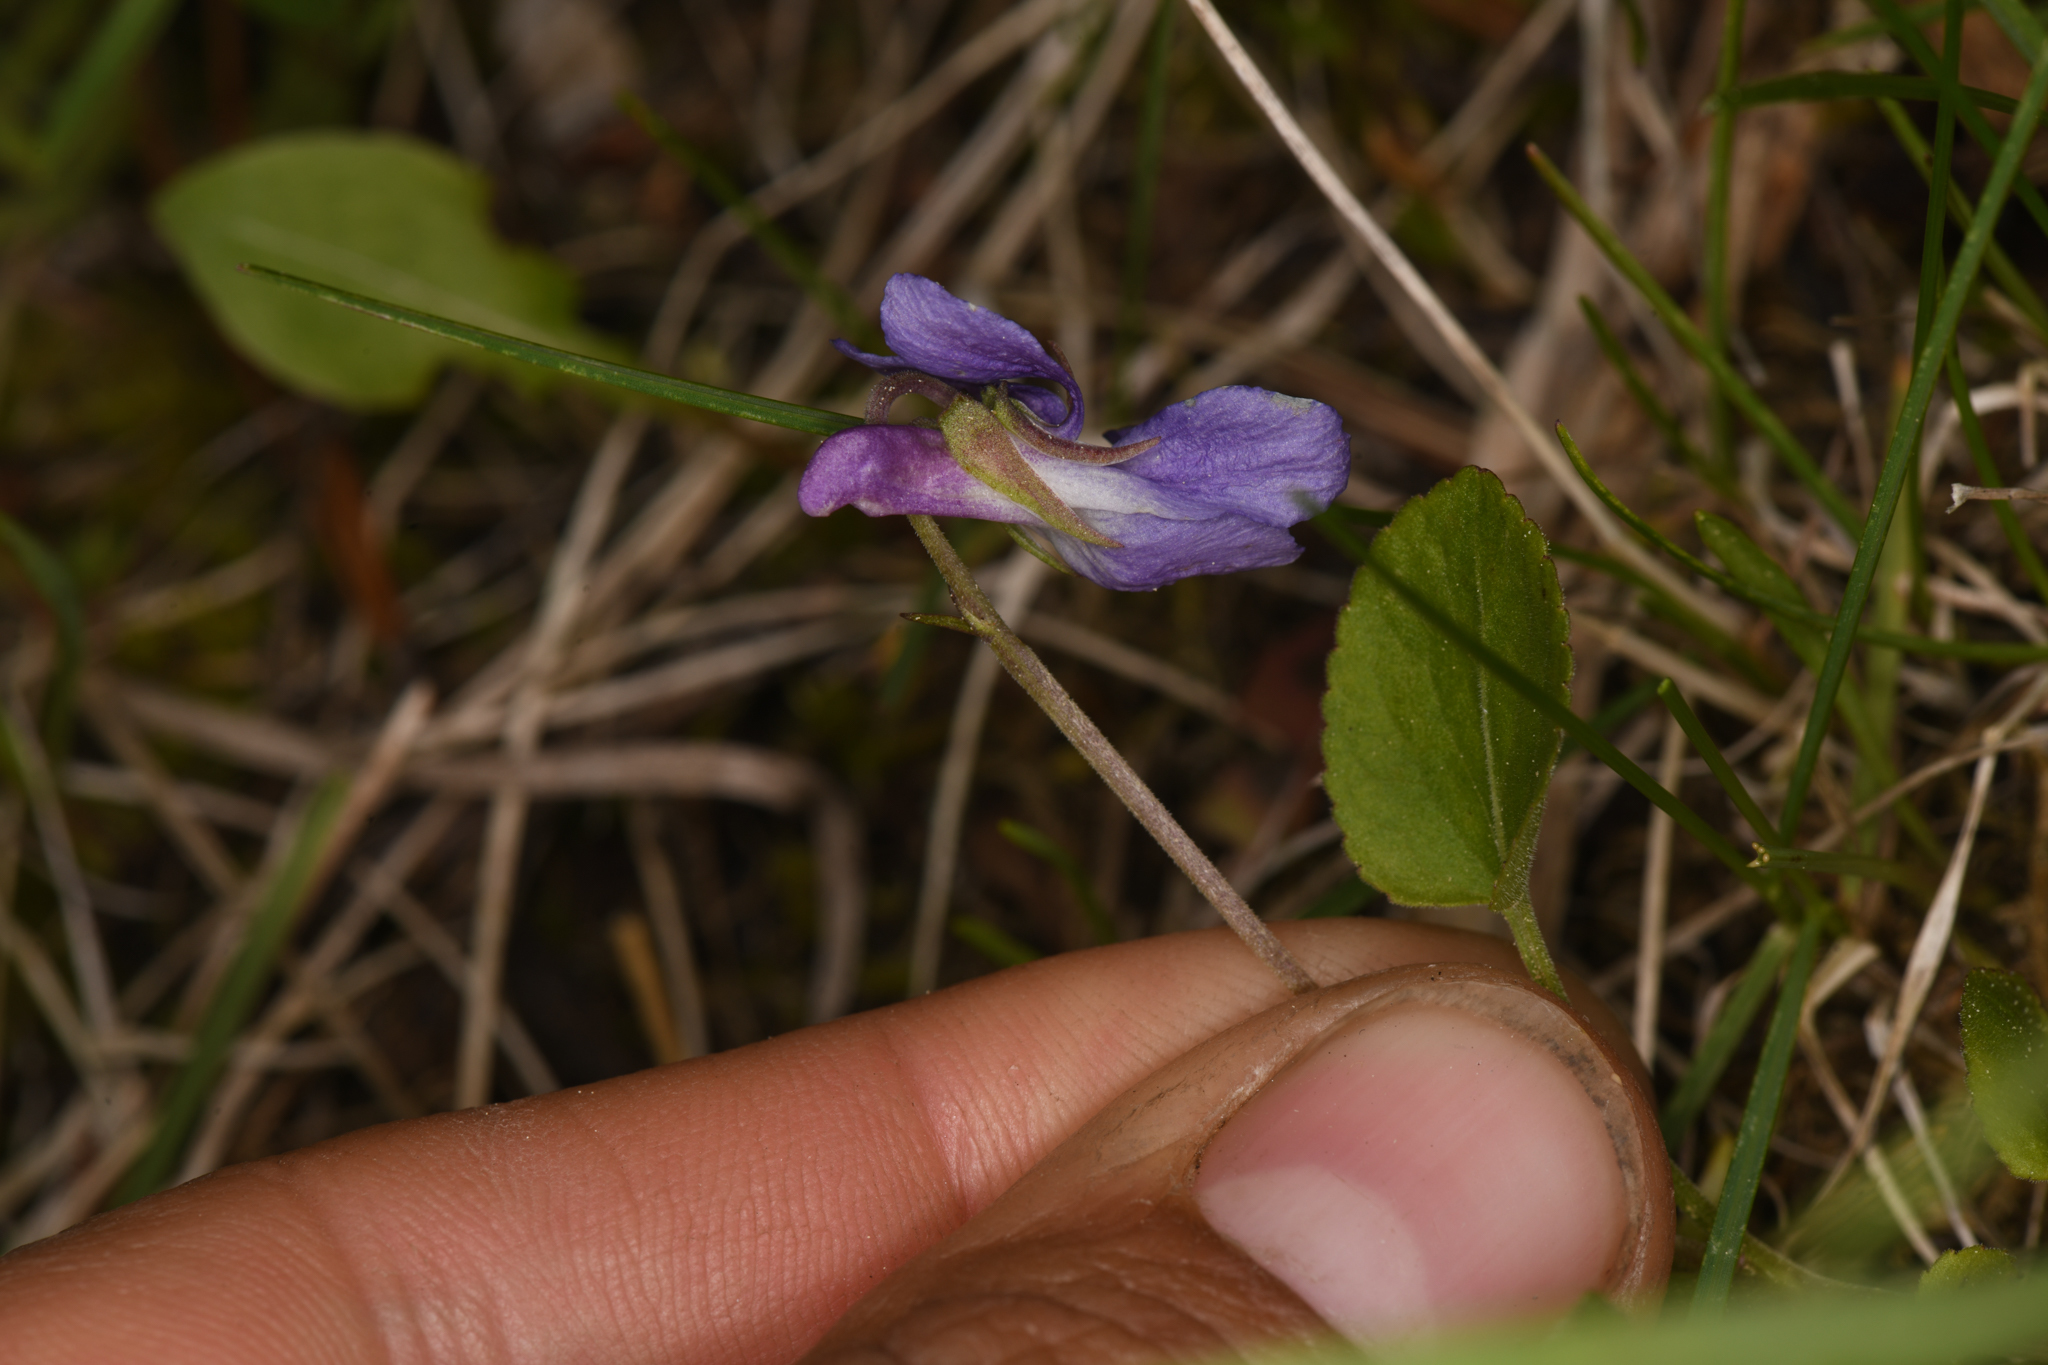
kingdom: Plantae
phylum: Tracheophyta
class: Magnoliopsida
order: Malpighiales
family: Violaceae
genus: Viola
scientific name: Viola adunca
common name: Sand violet
